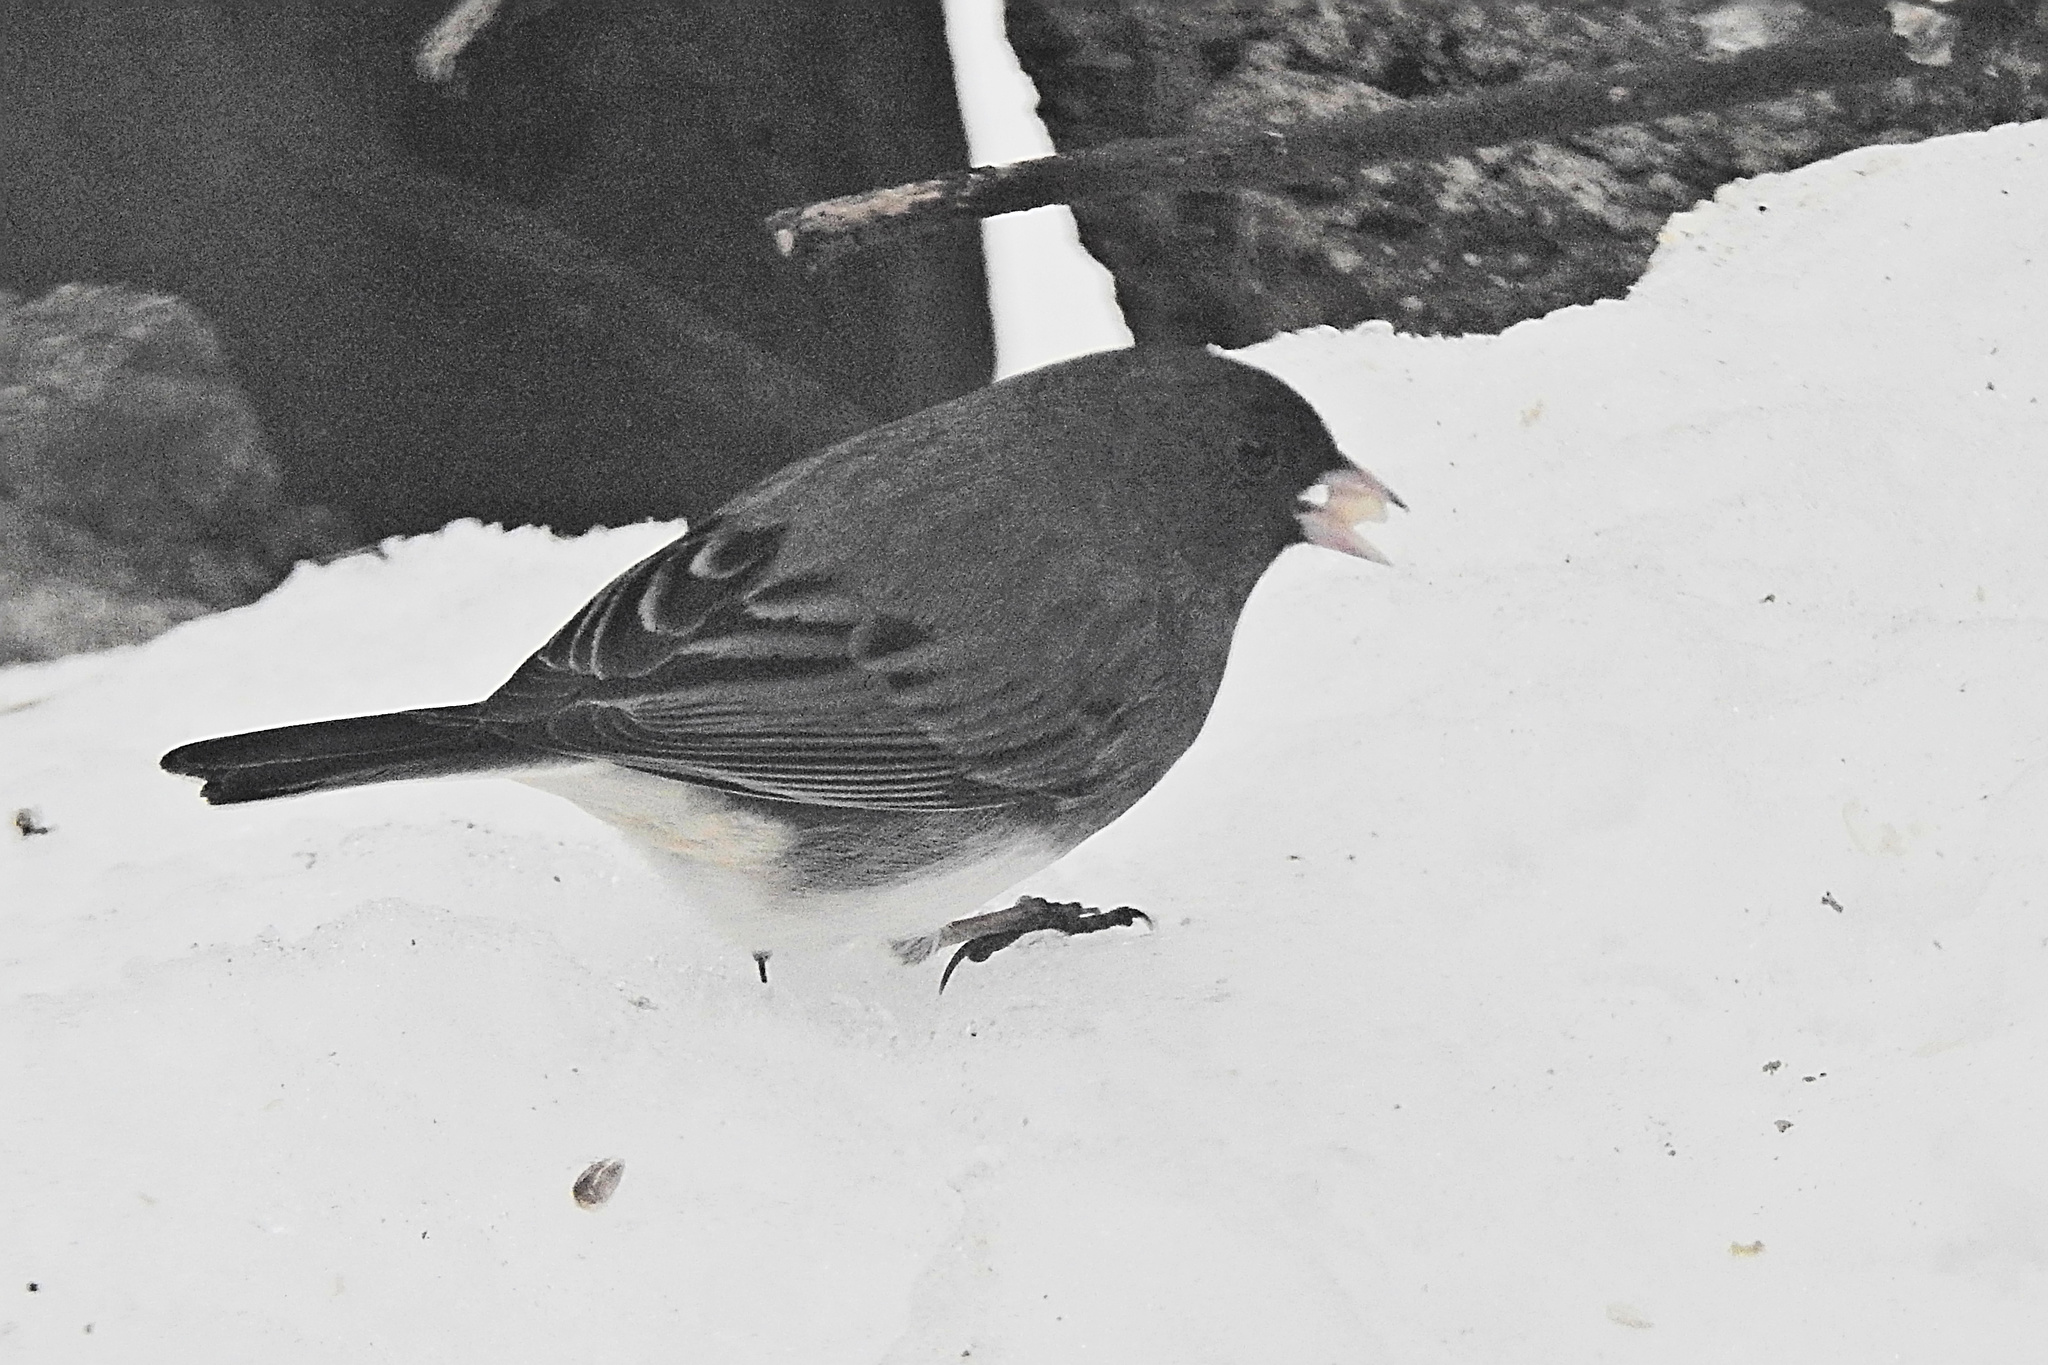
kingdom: Animalia
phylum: Chordata
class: Aves
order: Passeriformes
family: Passerellidae
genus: Junco
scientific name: Junco hyemalis
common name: Dark-eyed junco
